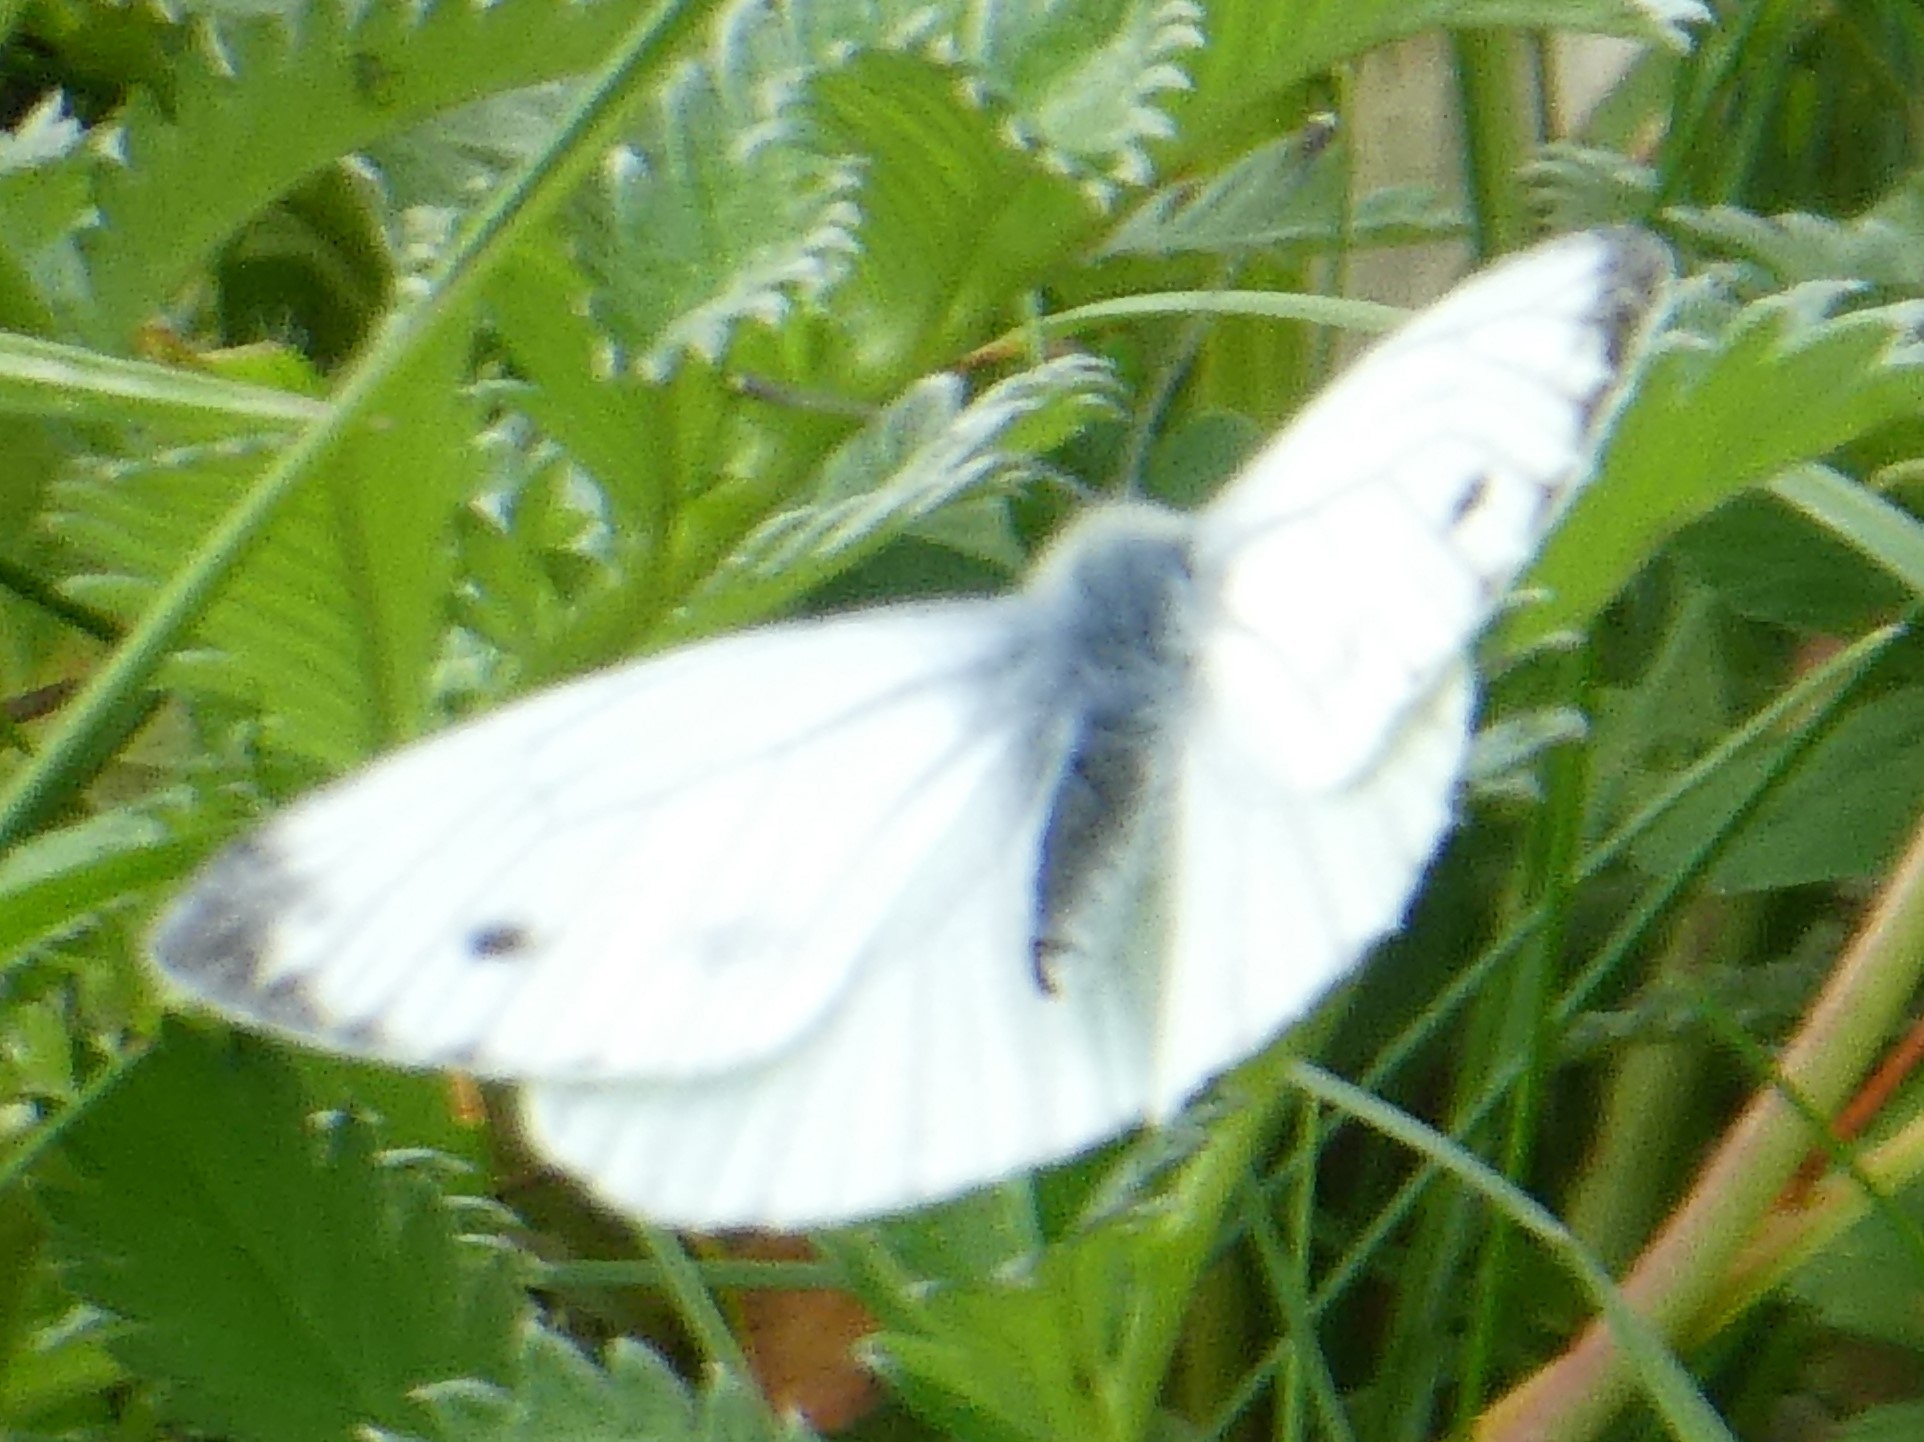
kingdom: Animalia
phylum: Arthropoda
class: Insecta
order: Lepidoptera
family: Pieridae
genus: Pieris
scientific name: Pieris napi
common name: Green-veined white
